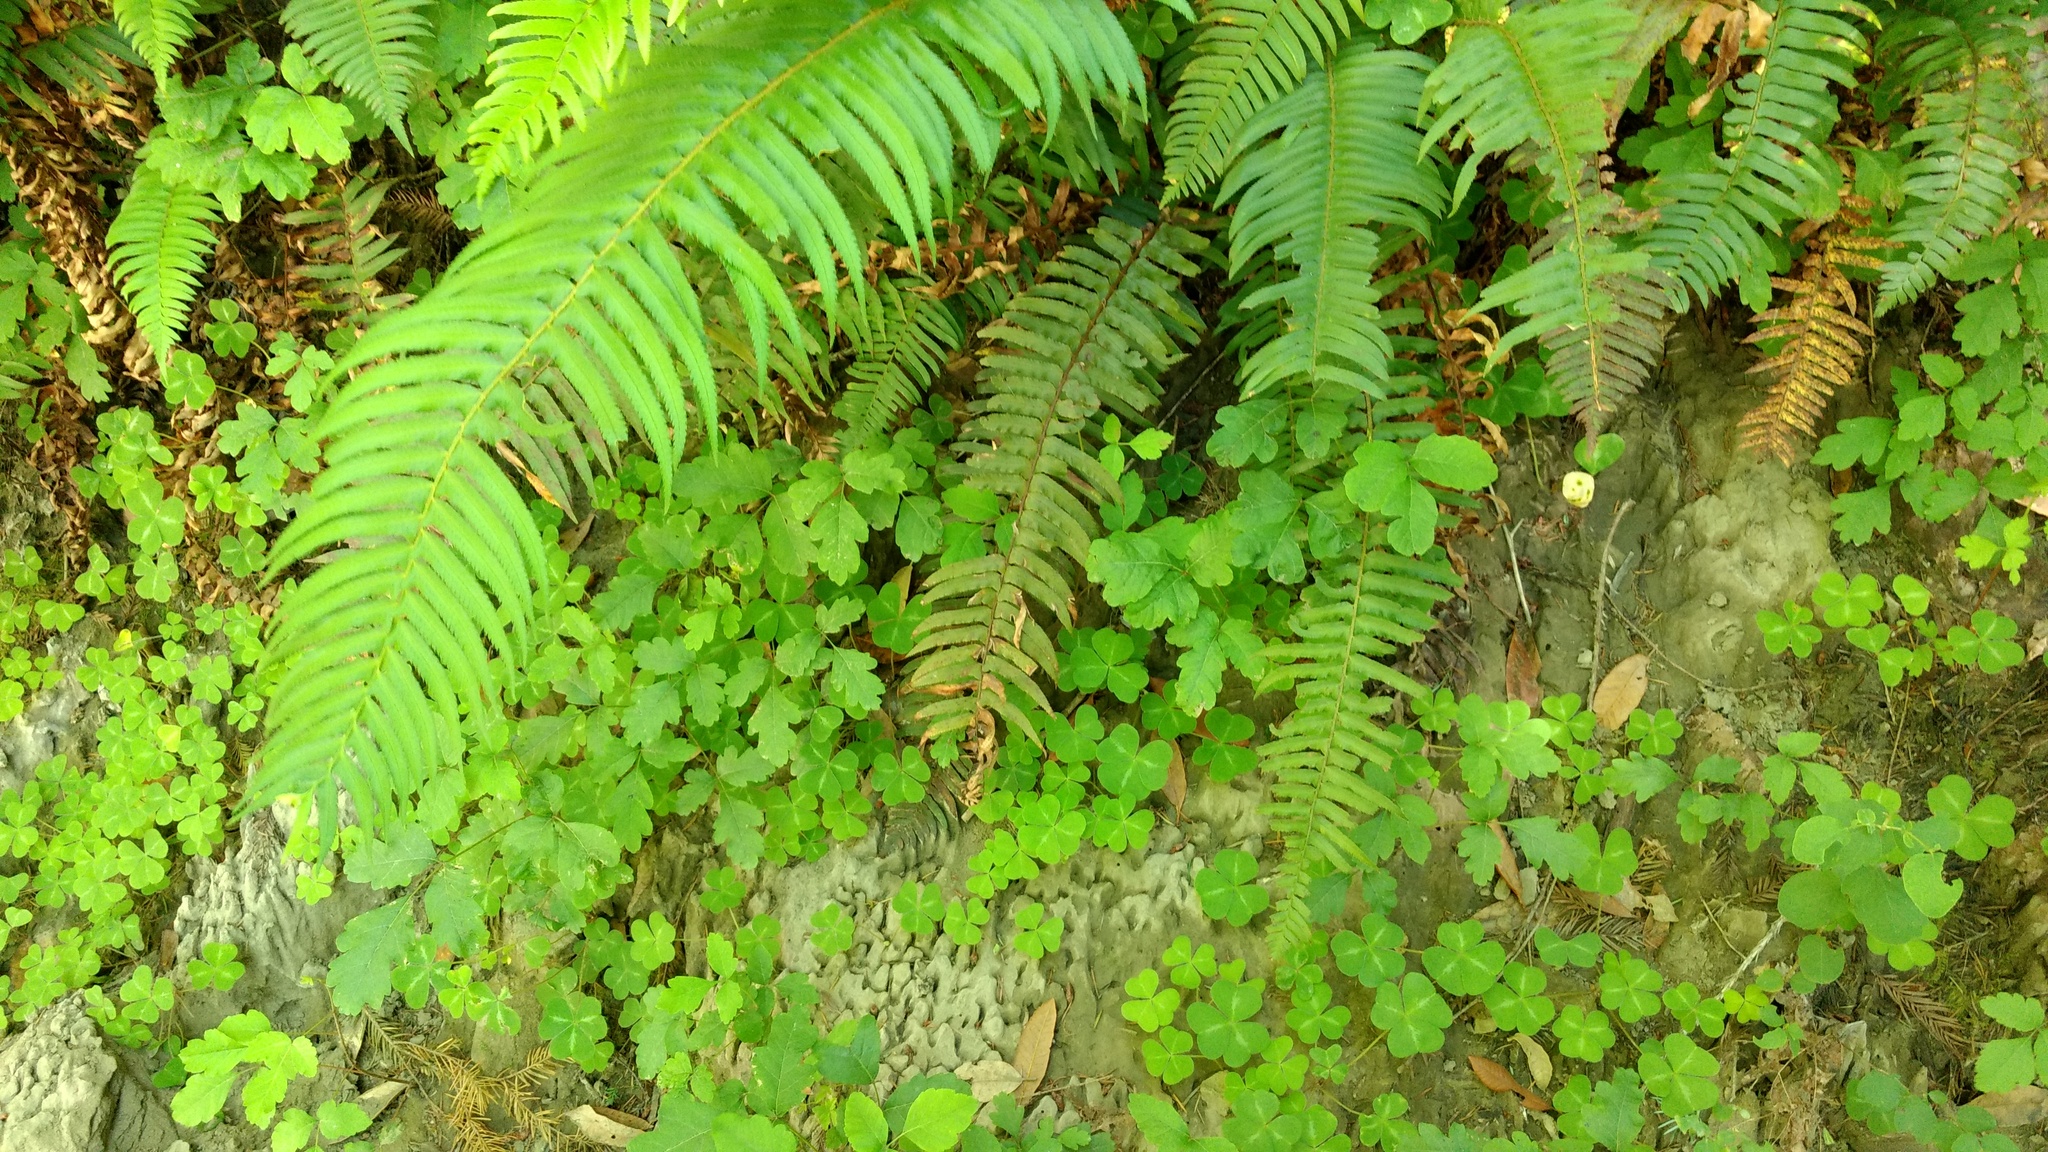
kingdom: Plantae
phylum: Tracheophyta
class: Magnoliopsida
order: Sapindales
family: Anacardiaceae
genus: Toxicodendron
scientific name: Toxicodendron diversilobum
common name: Pacific poison-oak
